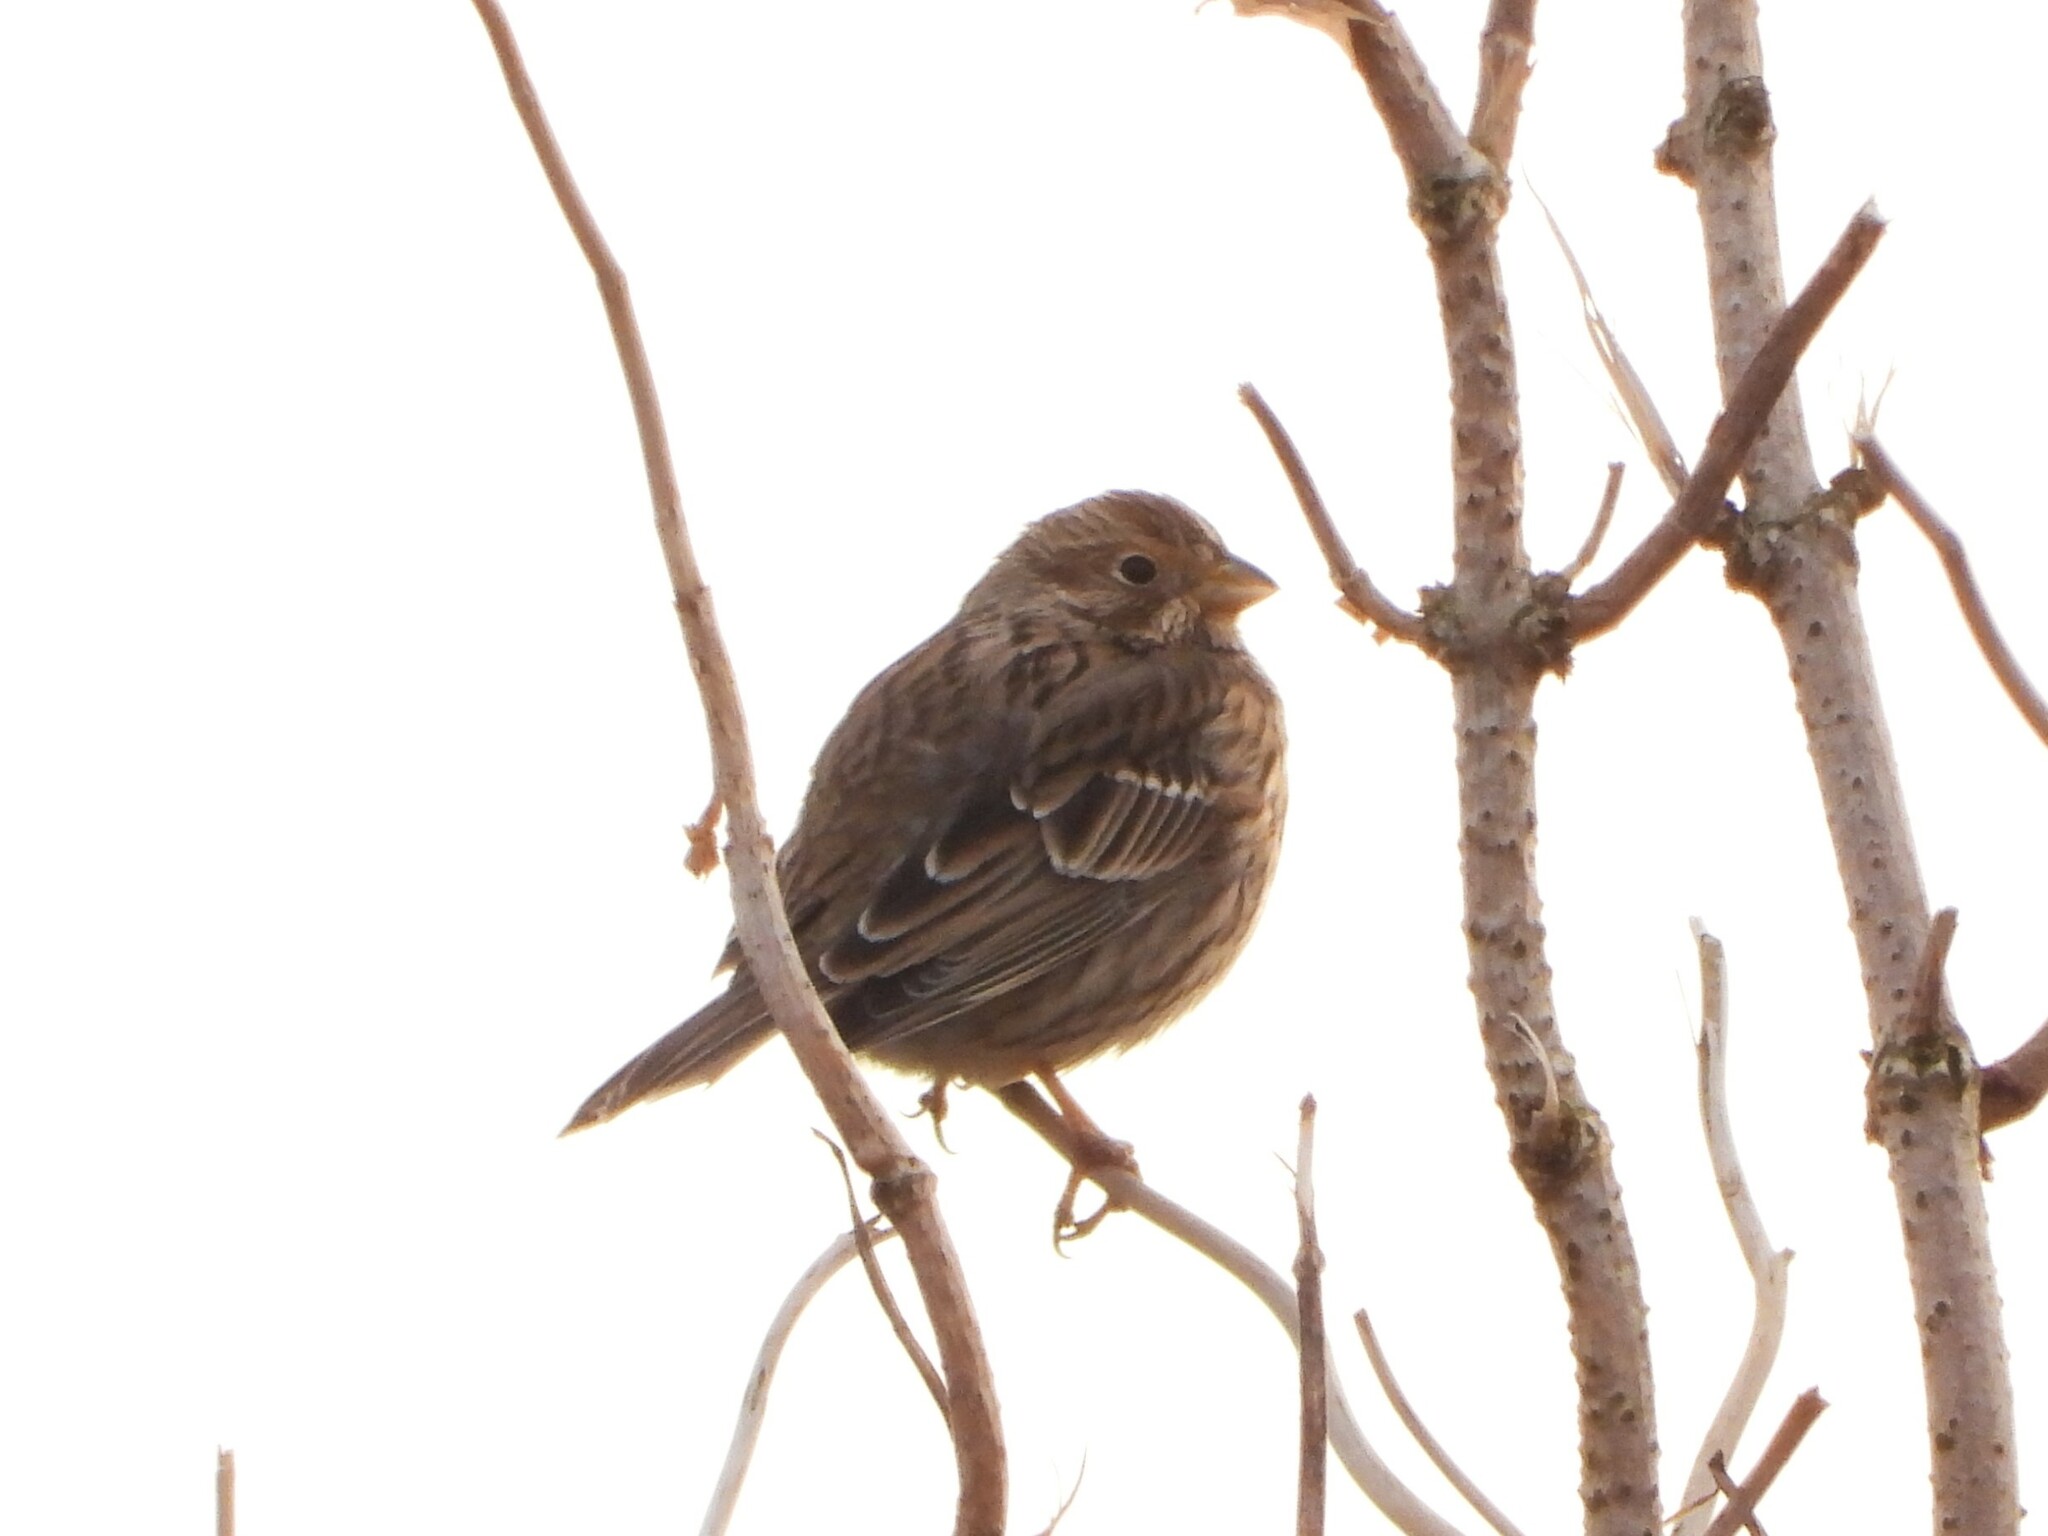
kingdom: Animalia
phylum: Chordata
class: Aves
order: Passeriformes
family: Emberizidae
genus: Emberiza
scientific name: Emberiza calandra
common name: Corn bunting
